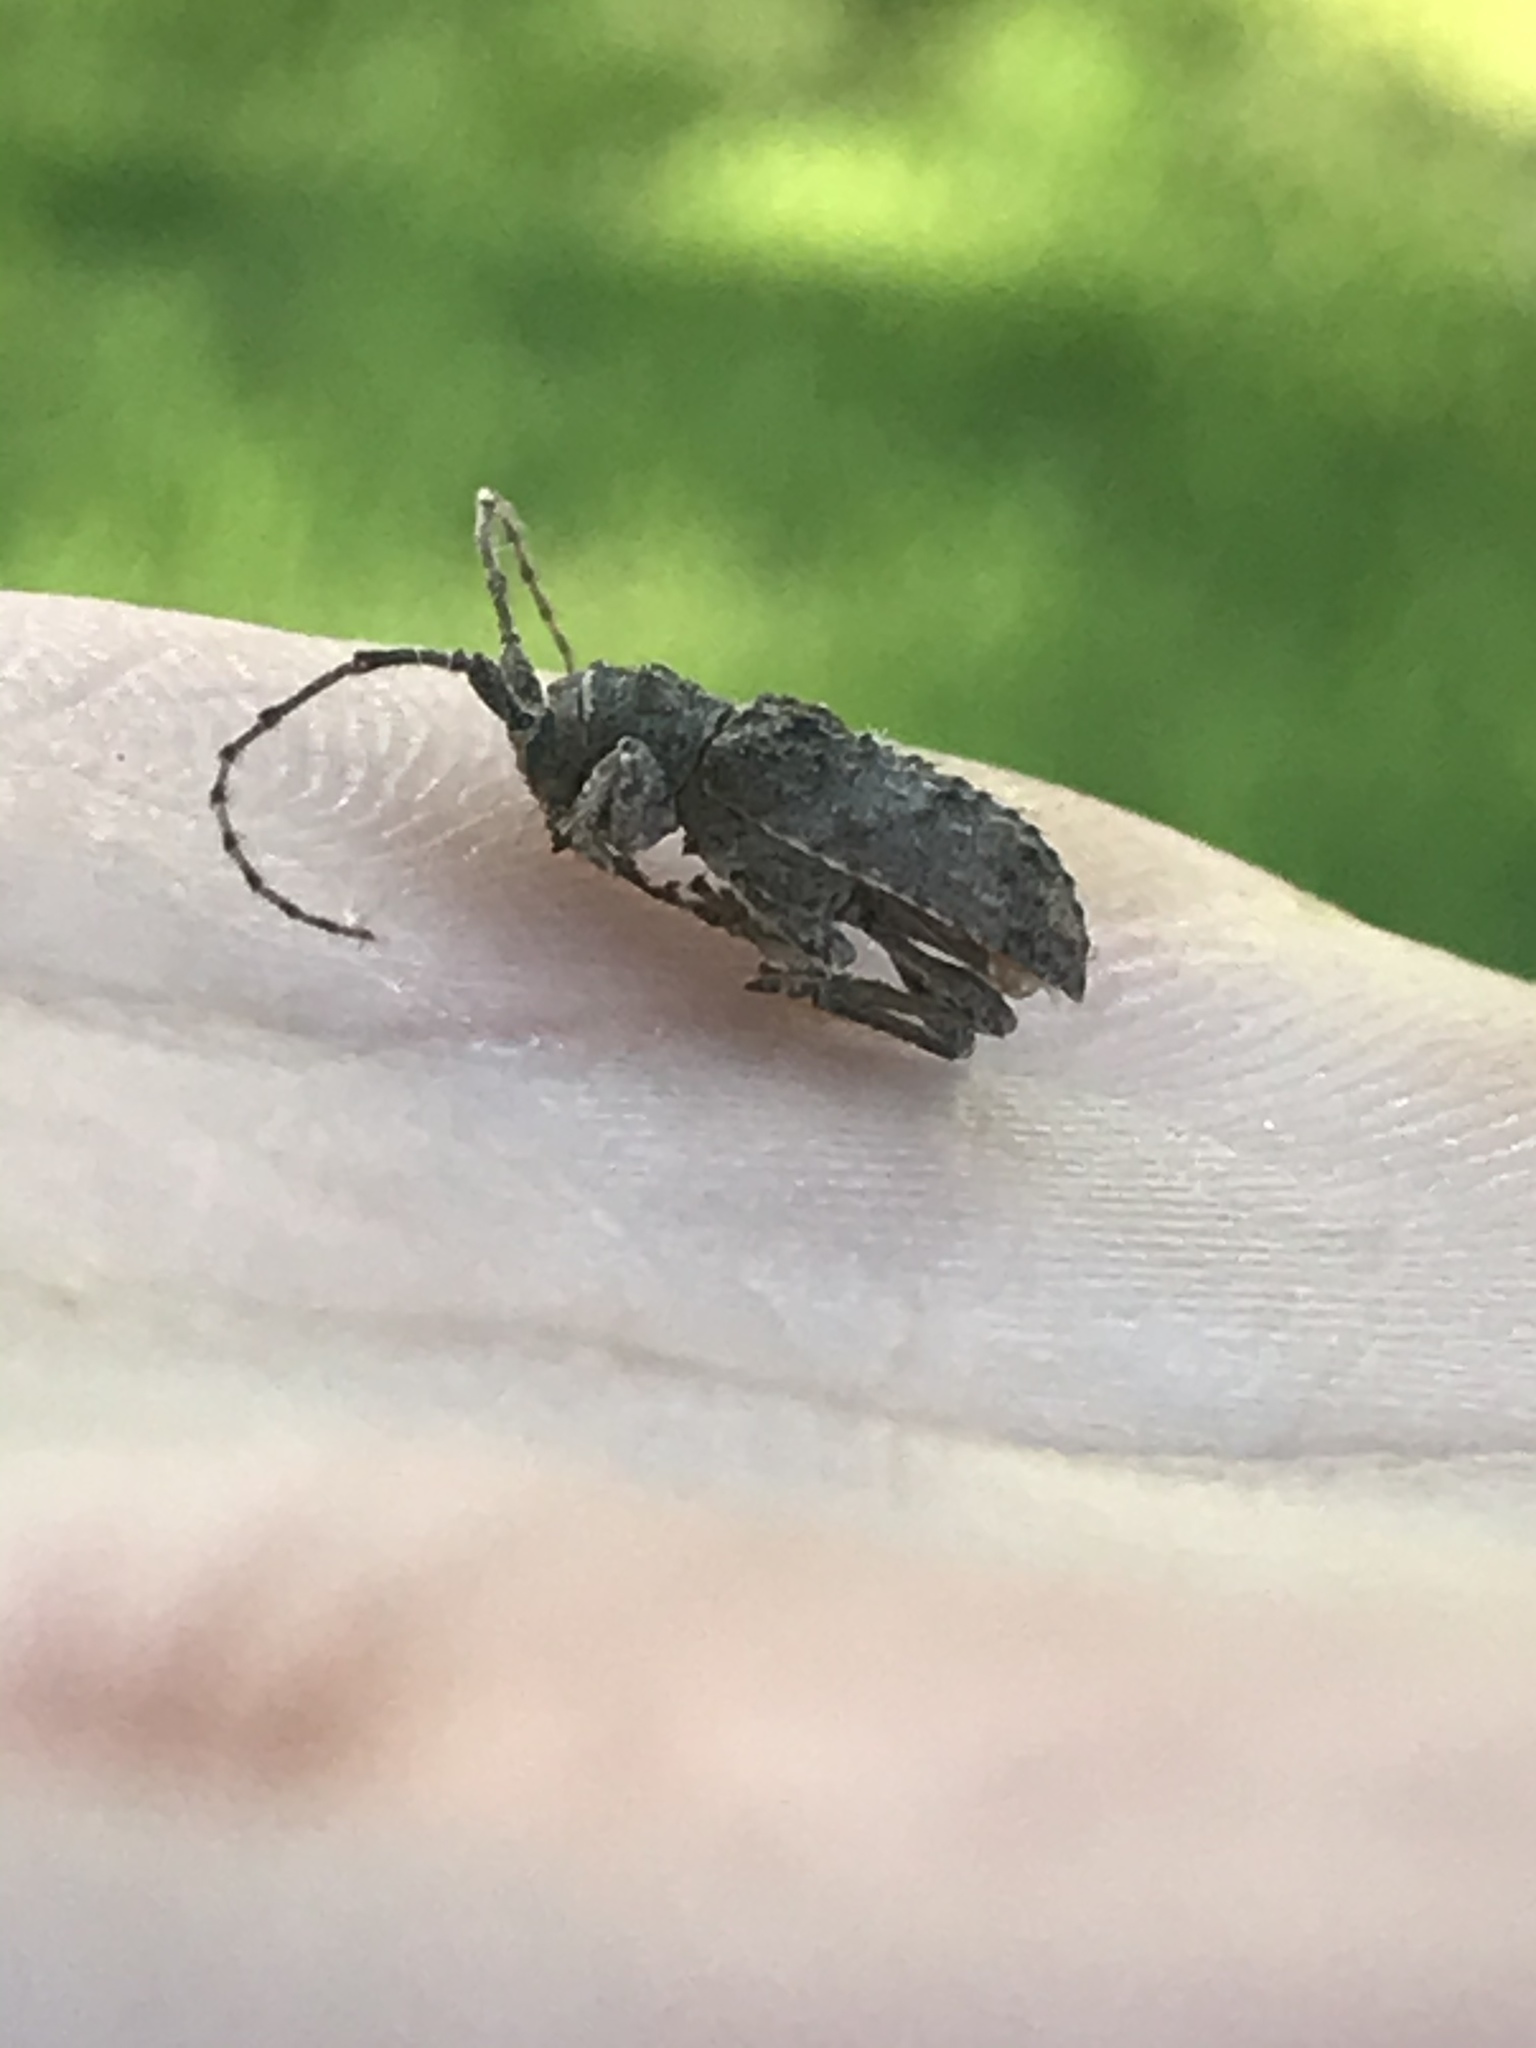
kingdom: Animalia
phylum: Arthropoda
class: Insecta
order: Coleoptera
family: Cerambycidae
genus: Ecyrus
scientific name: Ecyrus dasycerus
